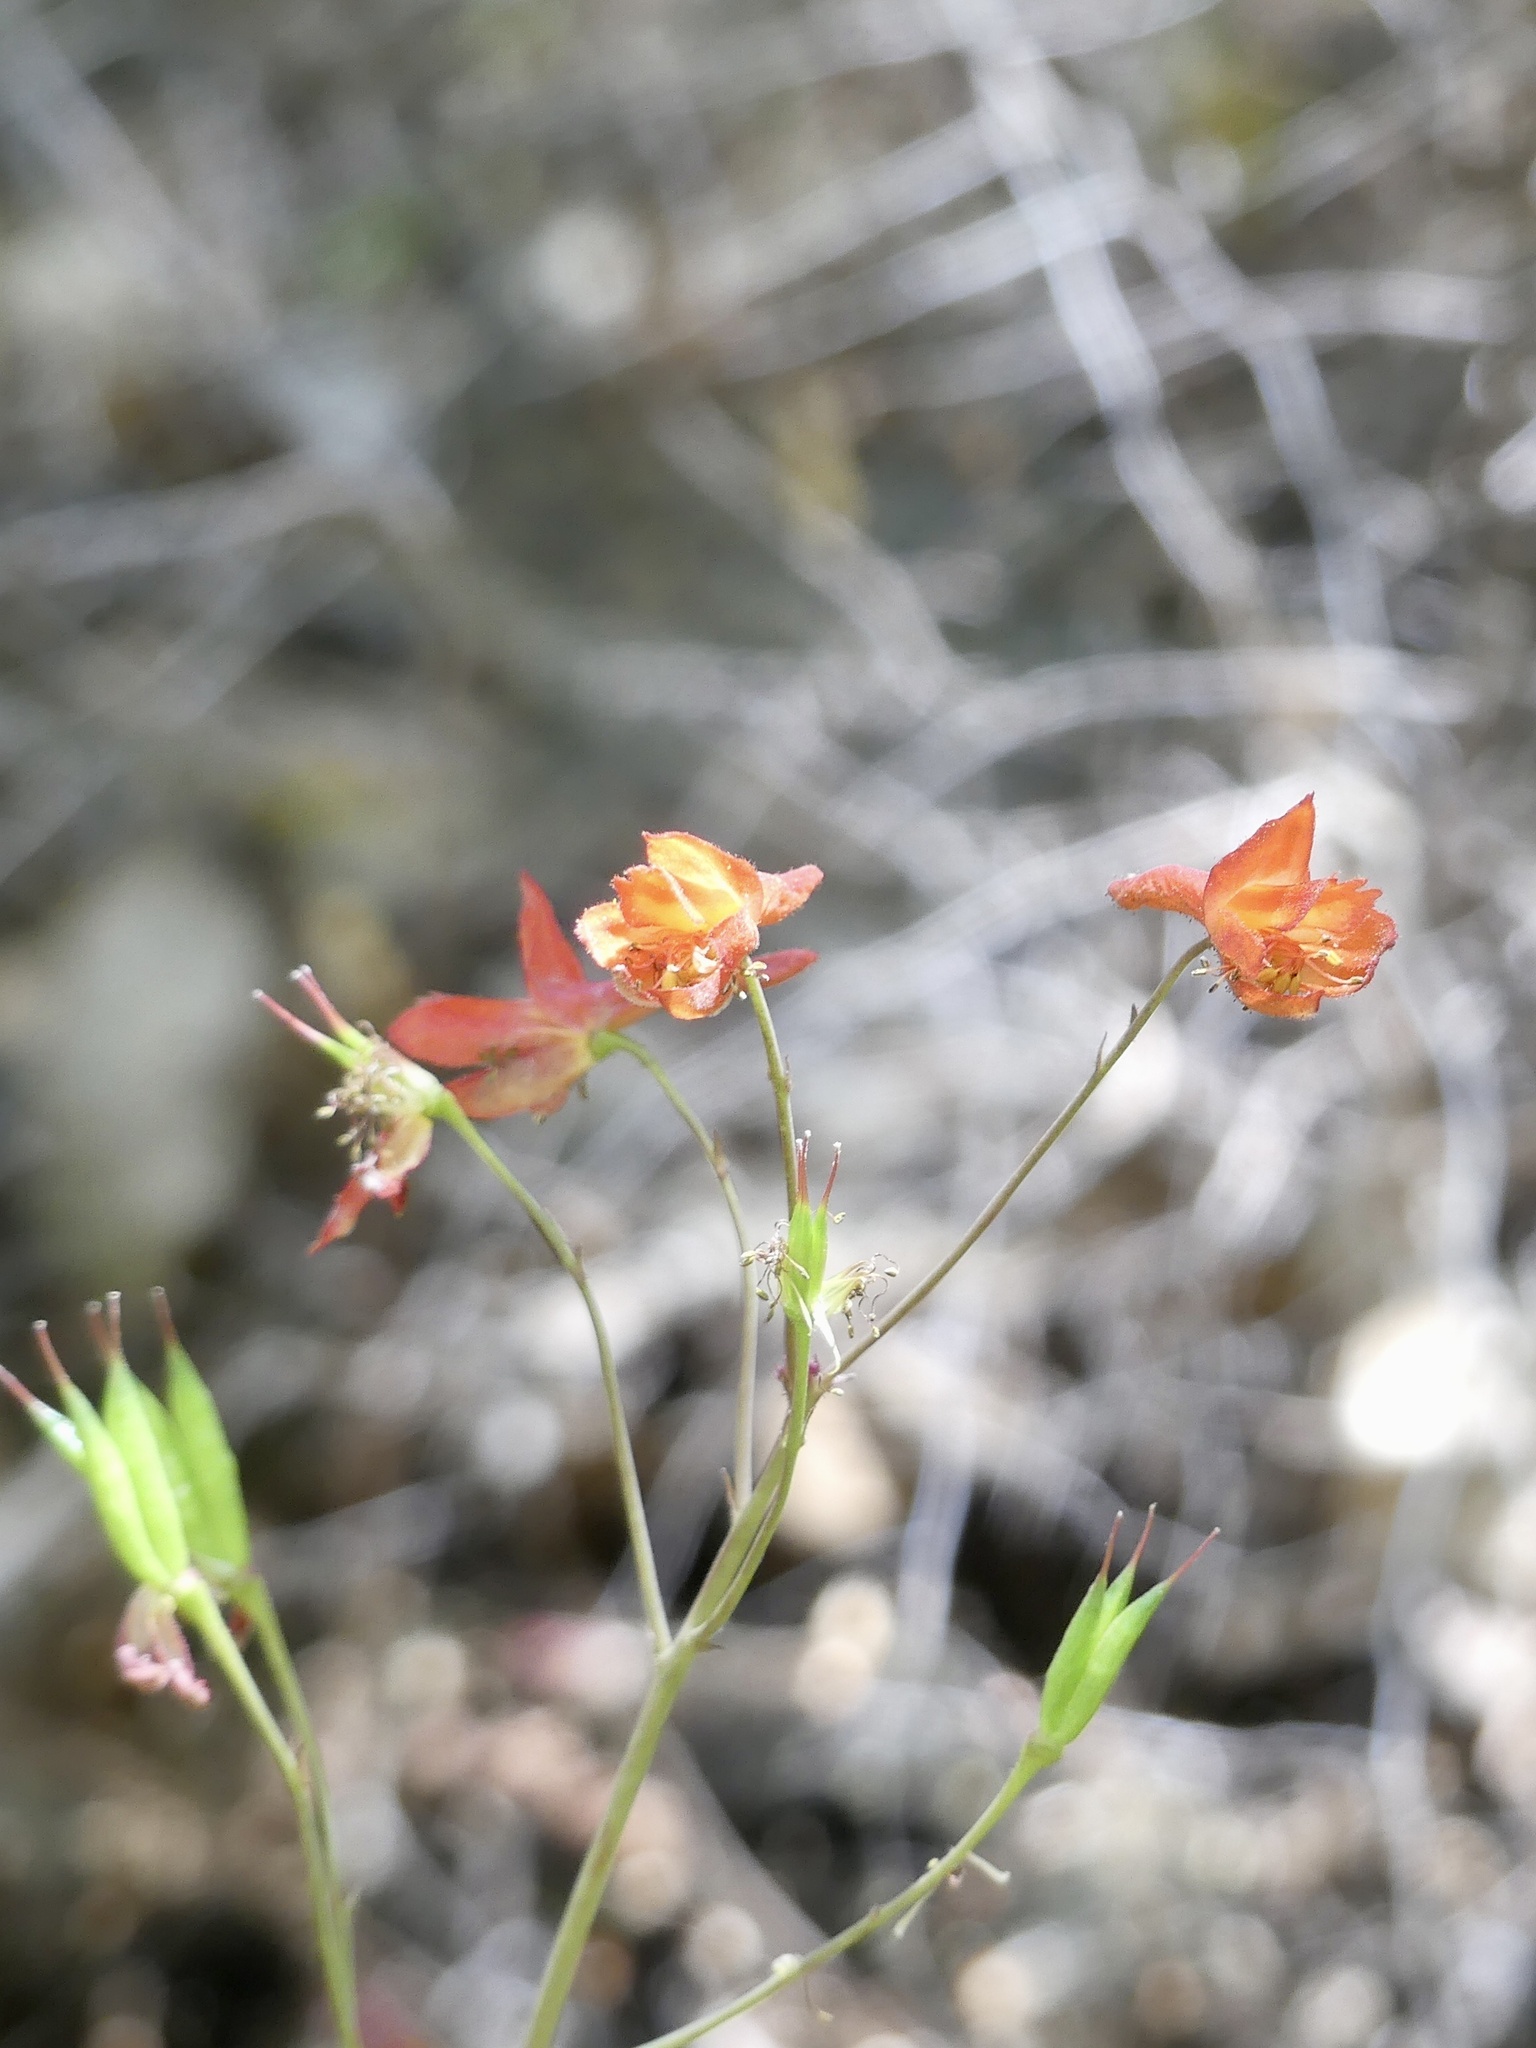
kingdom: Plantae
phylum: Tracheophyta
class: Magnoliopsida
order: Ranunculales
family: Ranunculaceae
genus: Delphinium
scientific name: Delphinium nudicaule
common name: Red larkspur
